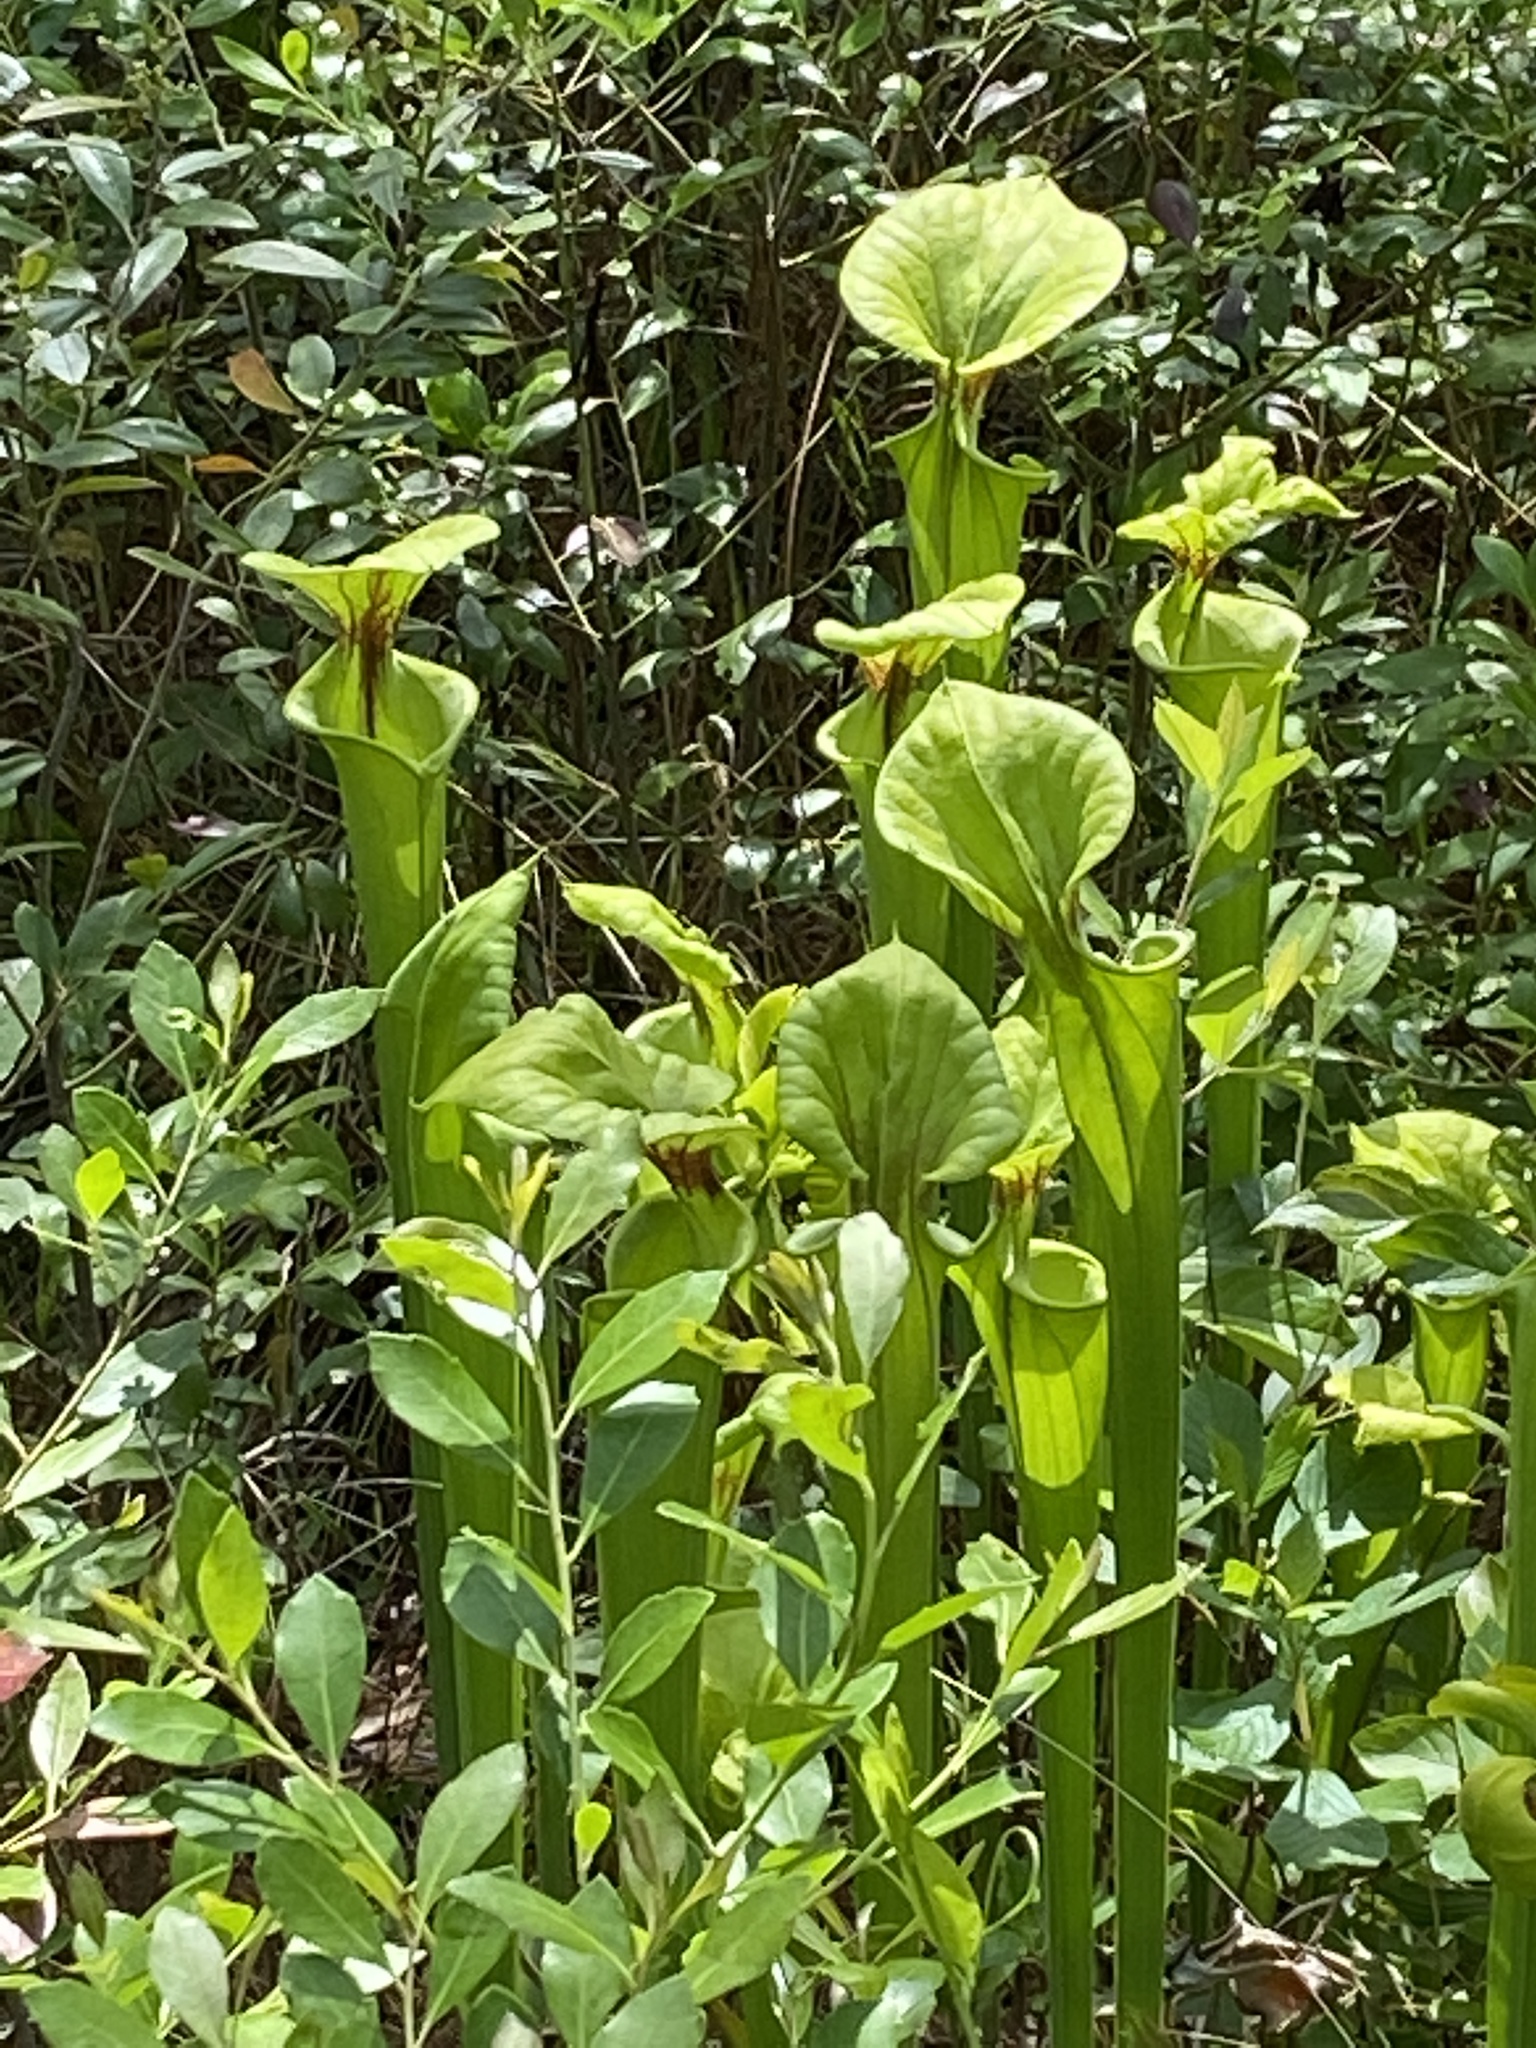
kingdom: Plantae
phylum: Tracheophyta
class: Magnoliopsida
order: Ericales
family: Sarraceniaceae
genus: Sarracenia
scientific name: Sarracenia flava
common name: Trumpets
